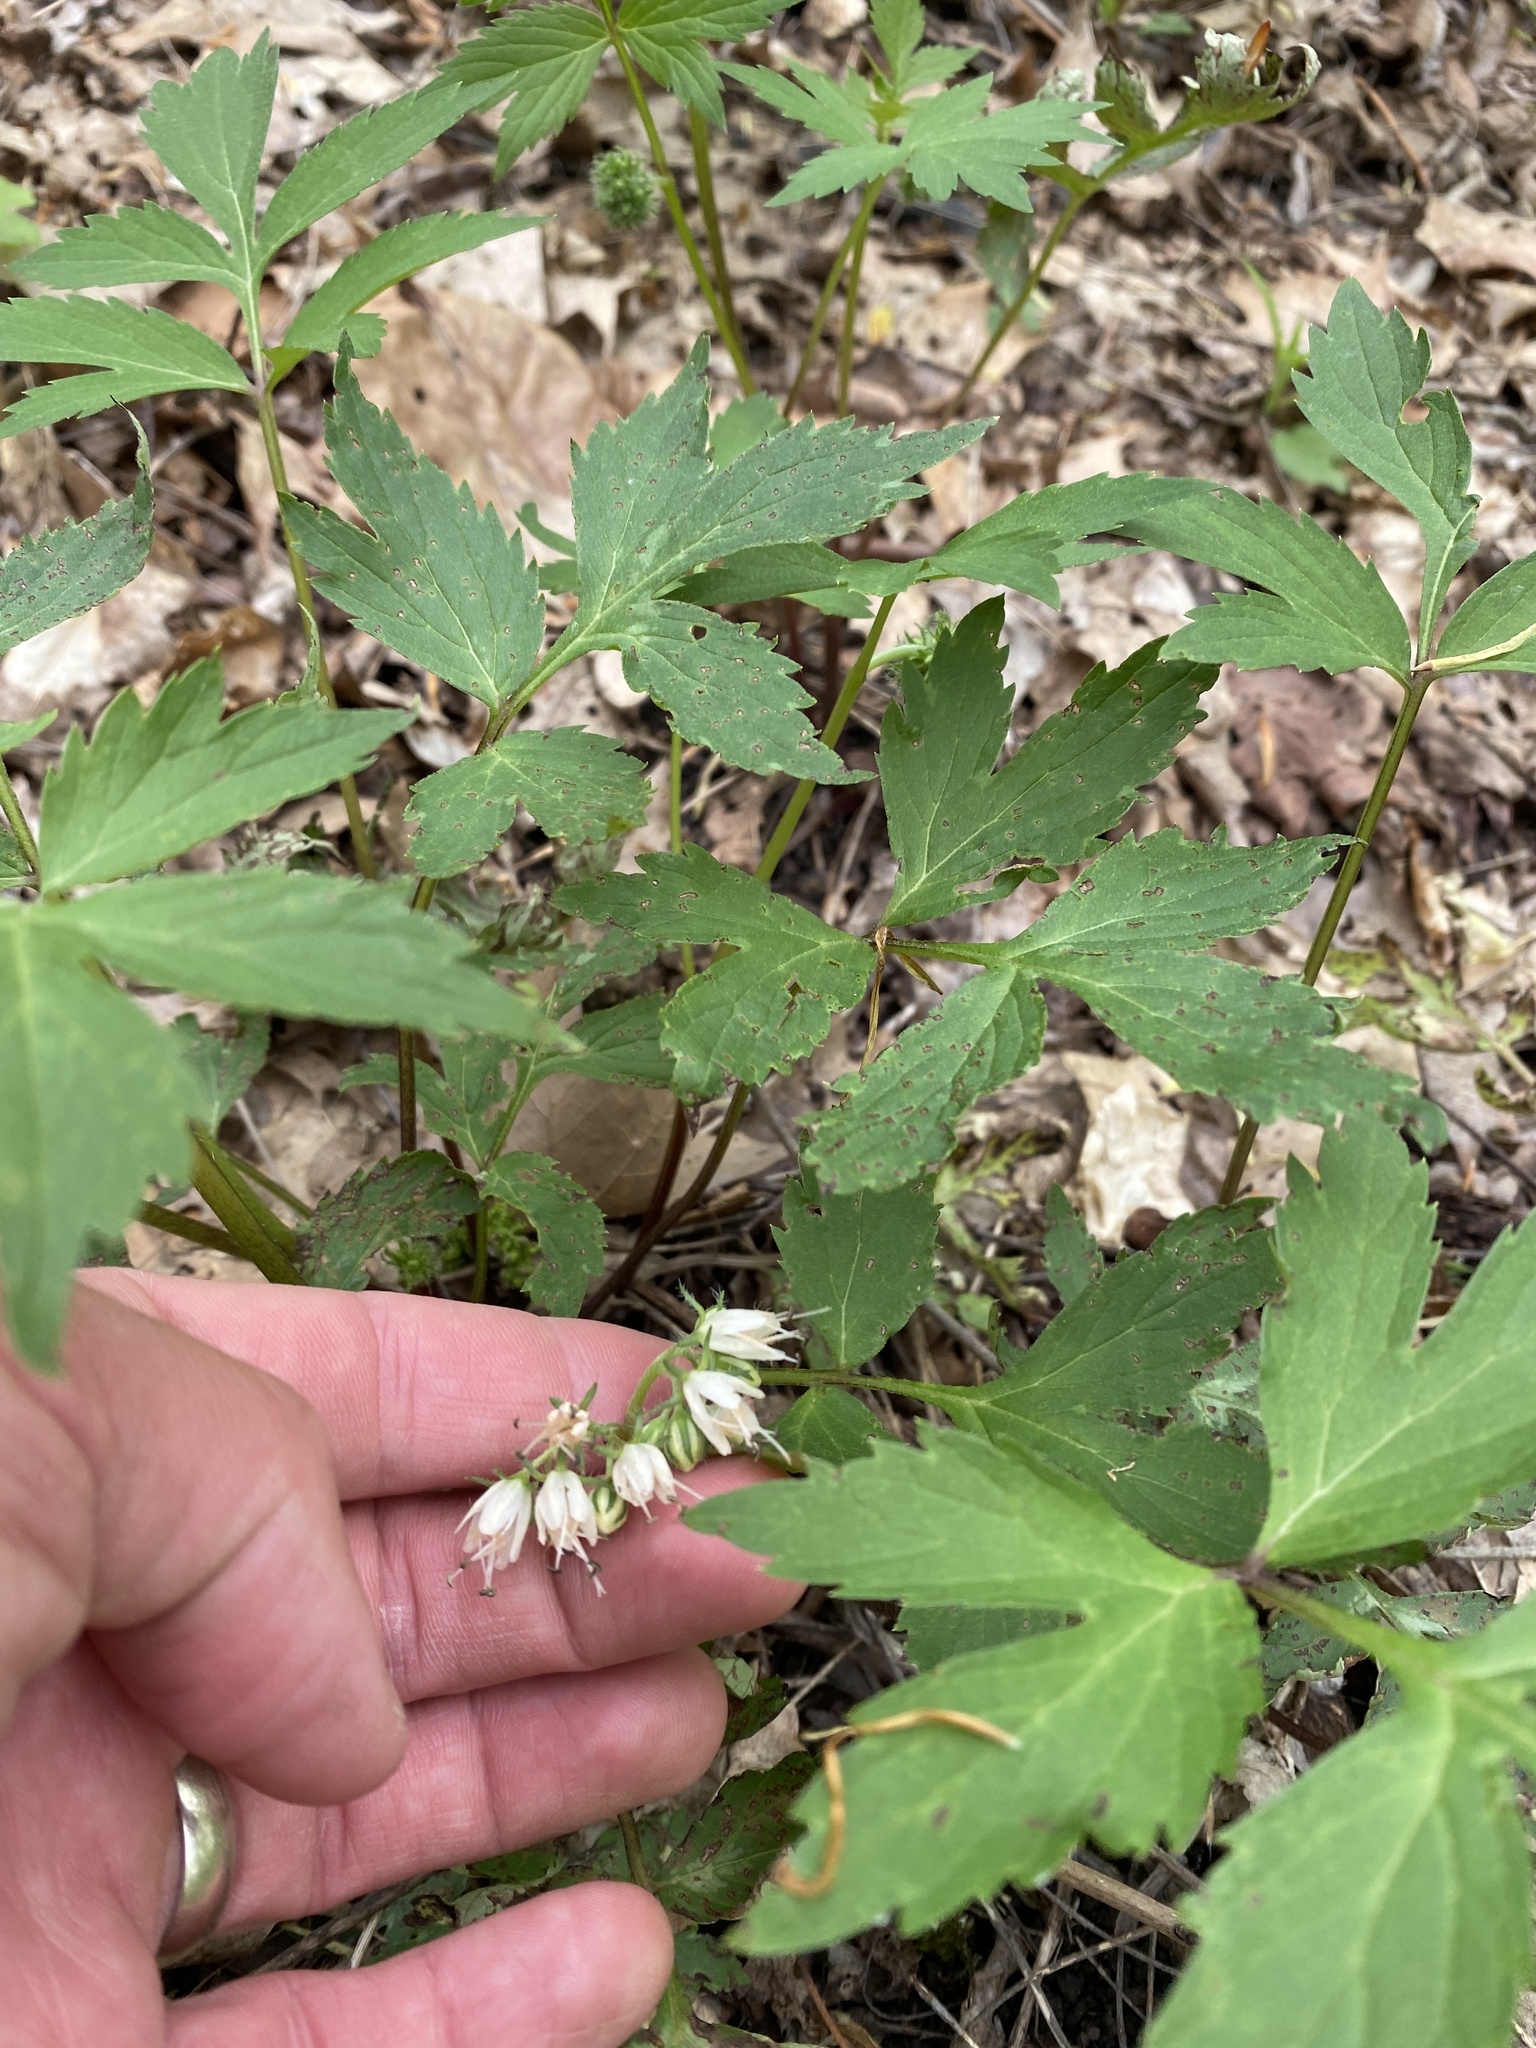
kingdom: Plantae
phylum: Tracheophyta
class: Magnoliopsida
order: Boraginales
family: Hydrophyllaceae
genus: Hydrophyllum
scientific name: Hydrophyllum virginianum
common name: Virginia waterleaf
